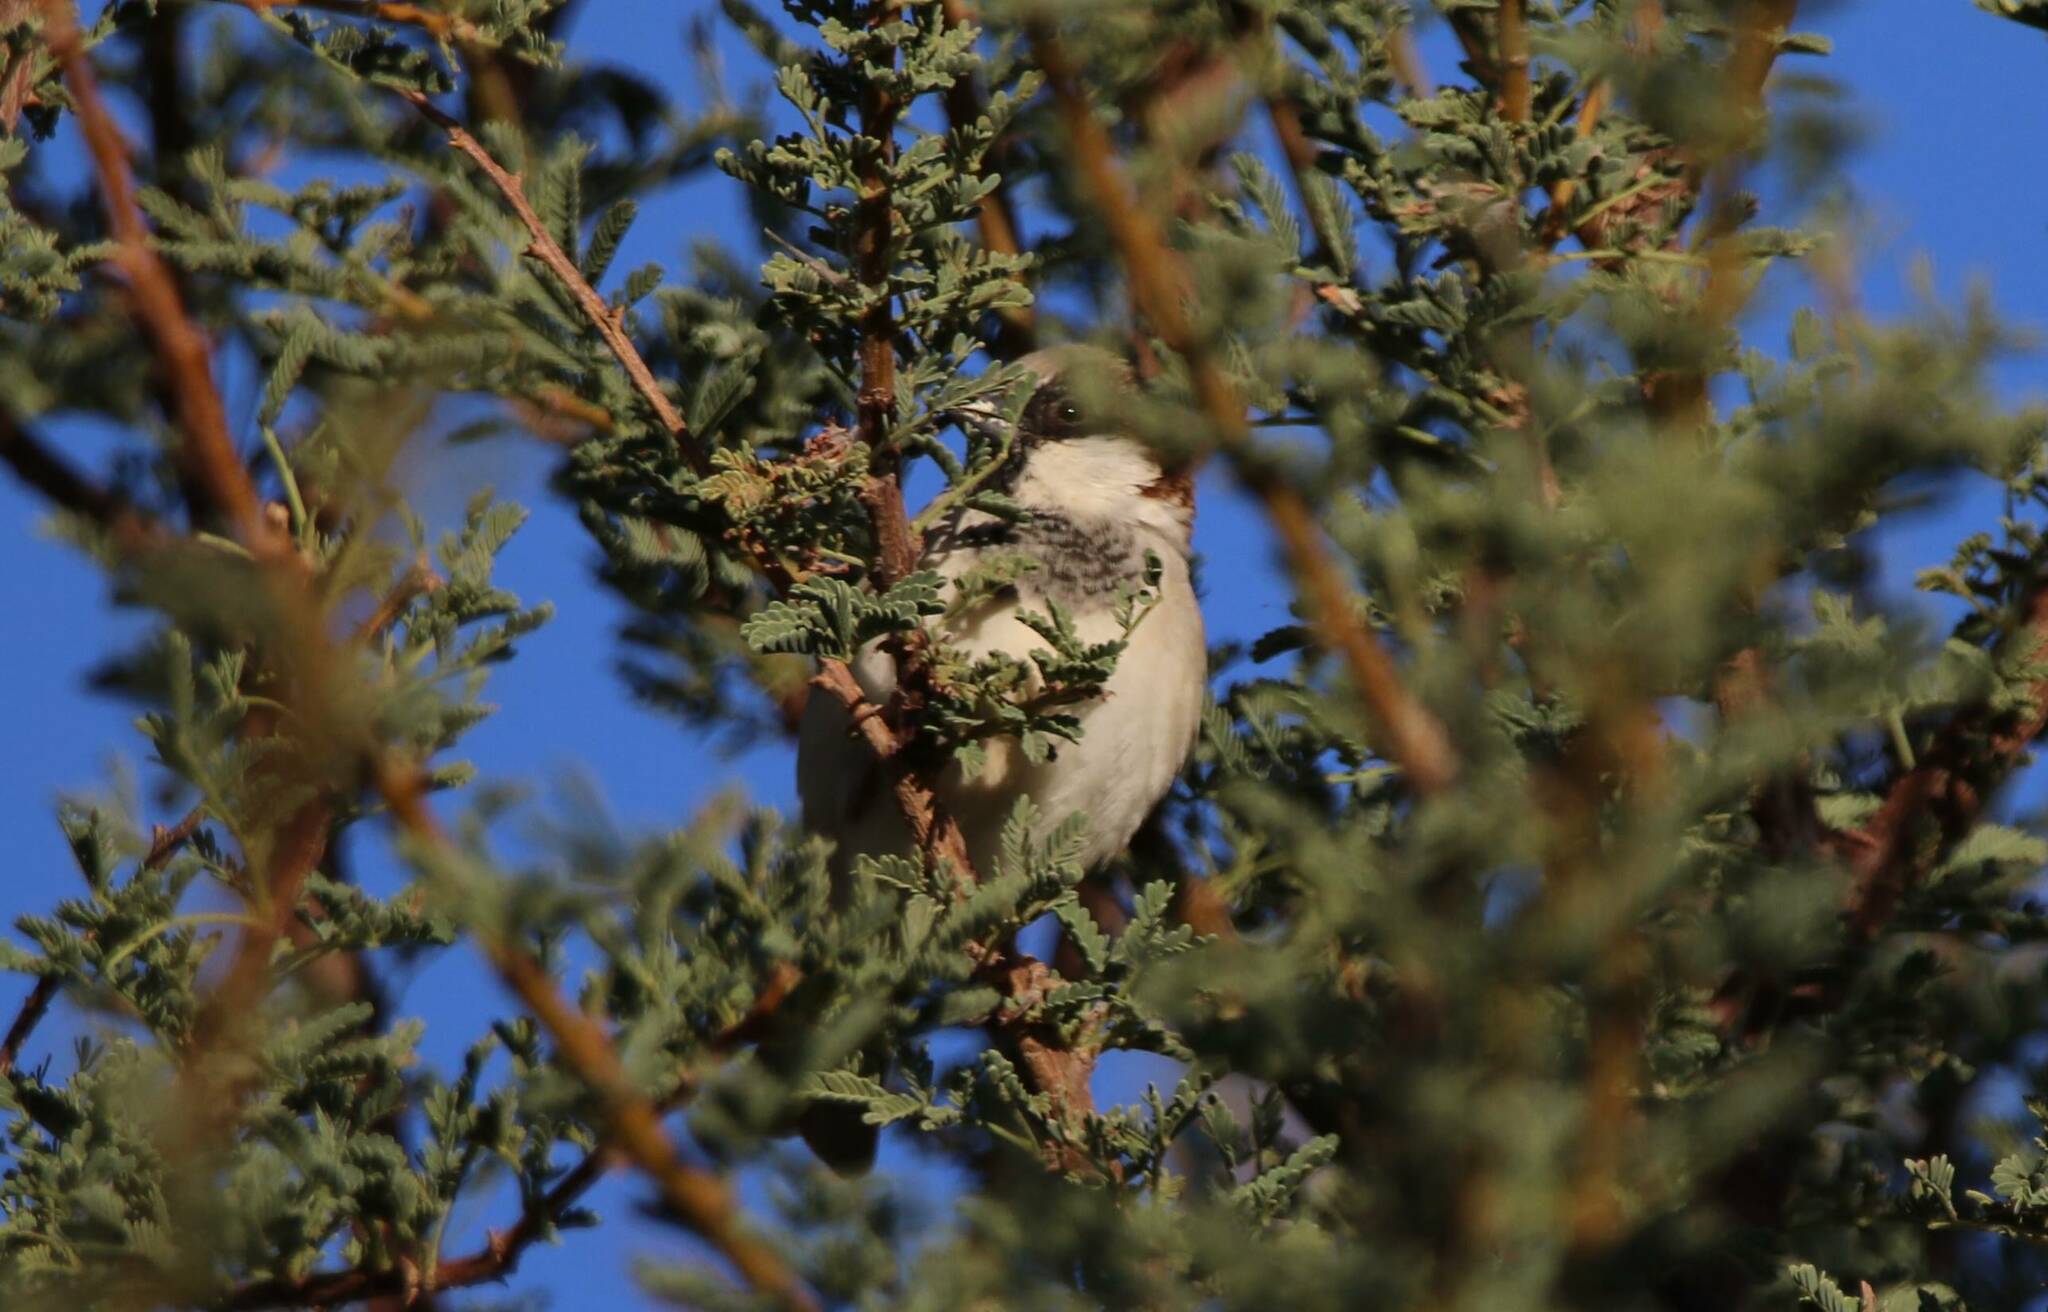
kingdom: Animalia
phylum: Chordata
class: Aves
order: Passeriformes
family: Passeridae
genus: Passer
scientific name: Passer domesticus
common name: House sparrow
